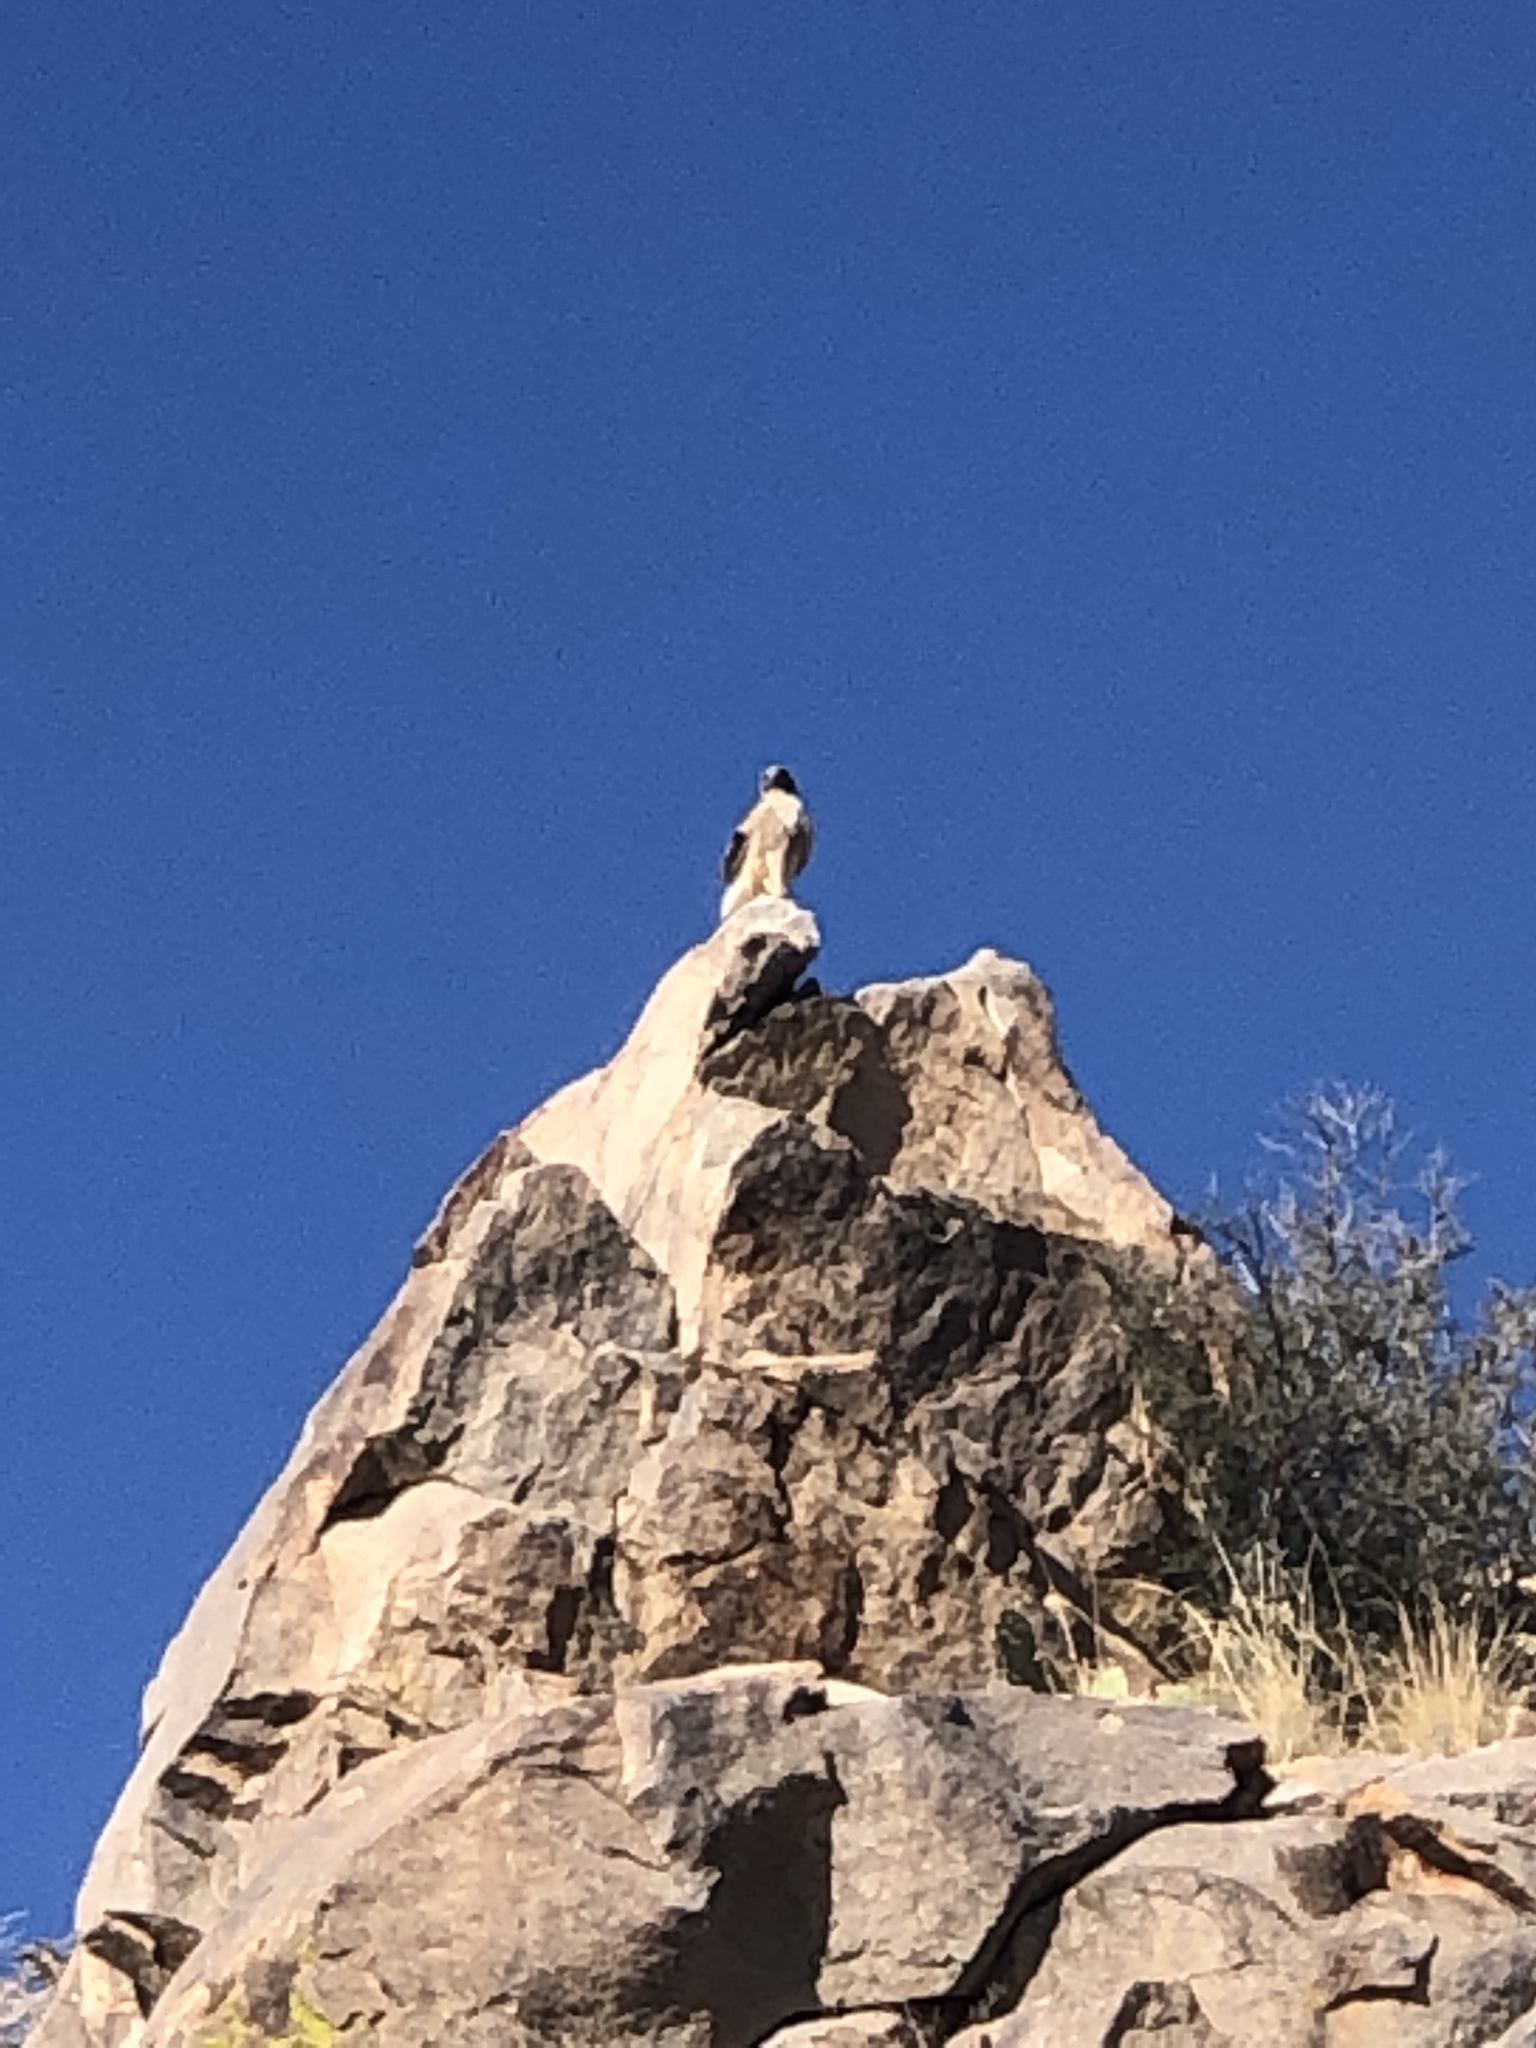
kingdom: Animalia
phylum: Chordata
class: Aves
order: Accipitriformes
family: Accipitridae
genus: Buteo
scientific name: Buteo jamaicensis
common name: Red-tailed hawk
